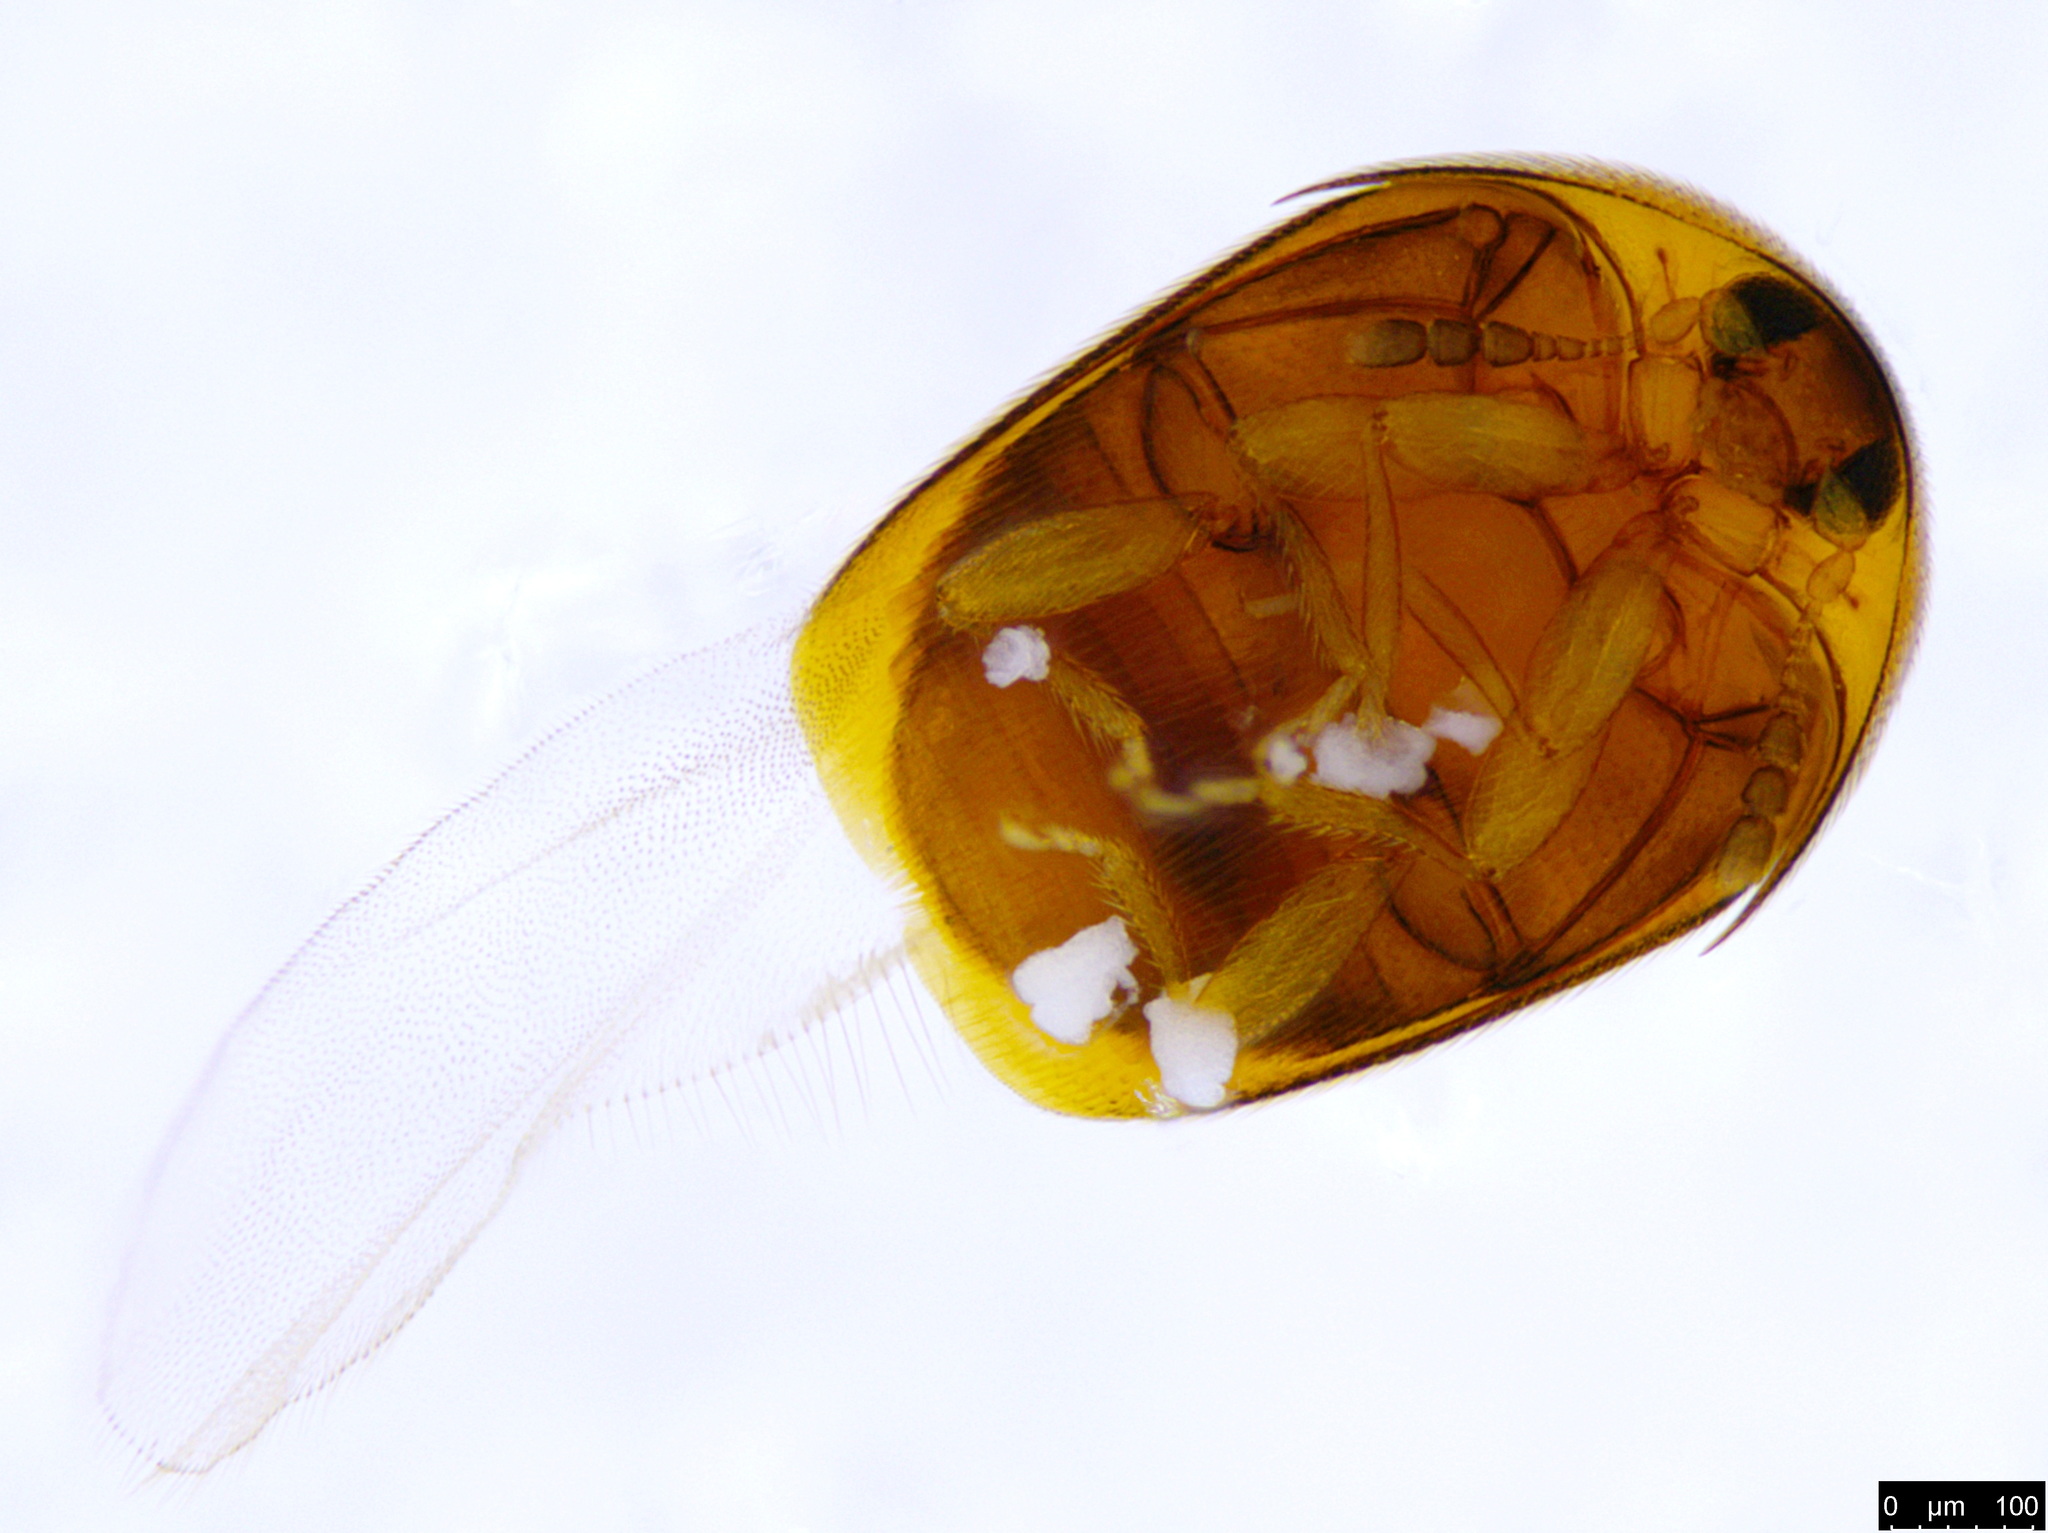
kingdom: Animalia
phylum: Arthropoda
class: Insecta
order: Coleoptera
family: Corylophidae
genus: Sericoderus
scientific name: Sericoderus
